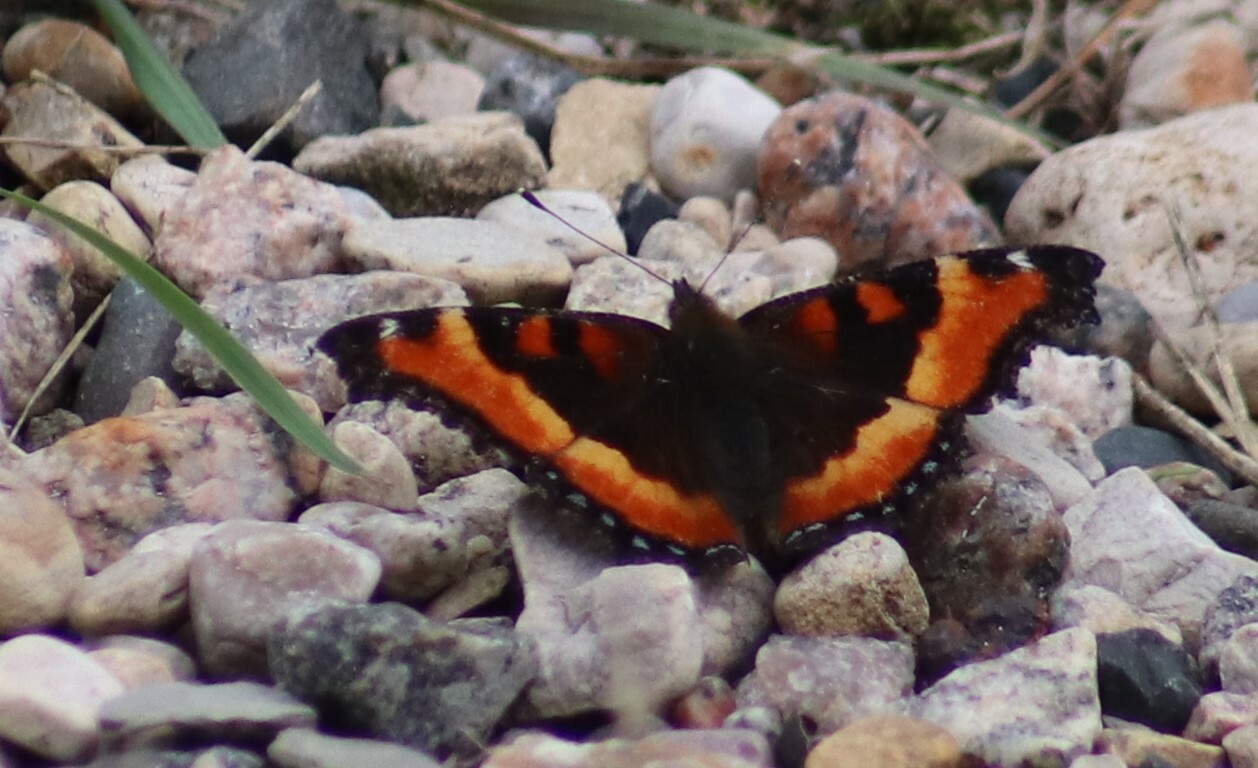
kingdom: Animalia
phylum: Arthropoda
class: Insecta
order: Lepidoptera
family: Nymphalidae
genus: Aglais
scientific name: Aglais milberti
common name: Milbert's tortoiseshell
